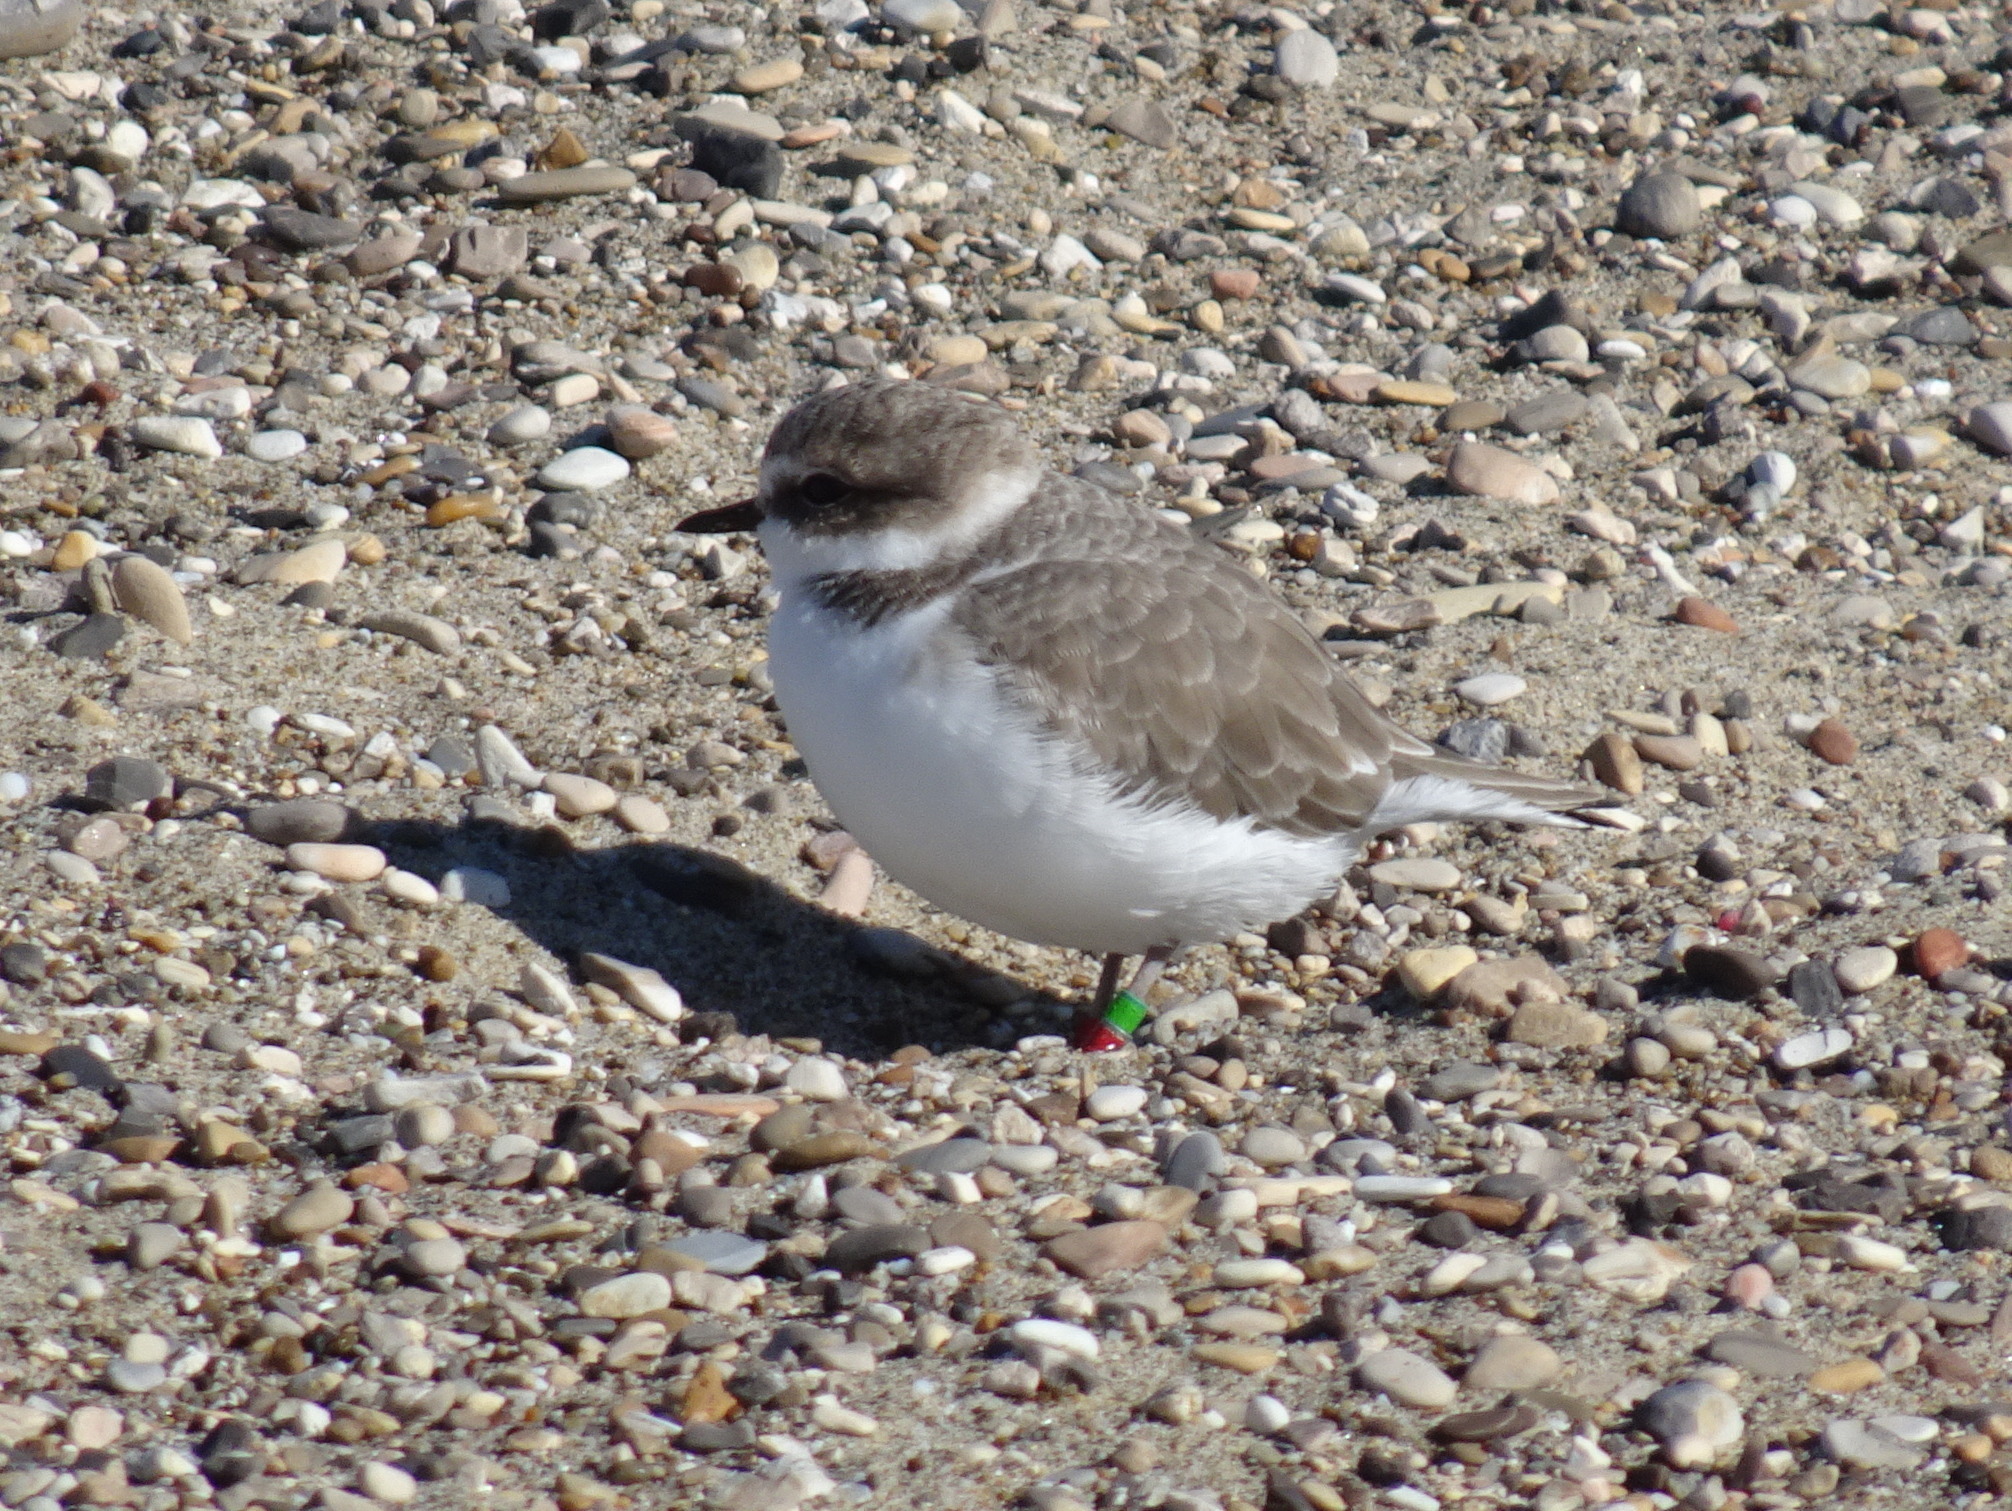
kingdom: Animalia
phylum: Chordata
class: Aves
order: Charadriiformes
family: Charadriidae
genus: Anarhynchus
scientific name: Anarhynchus
